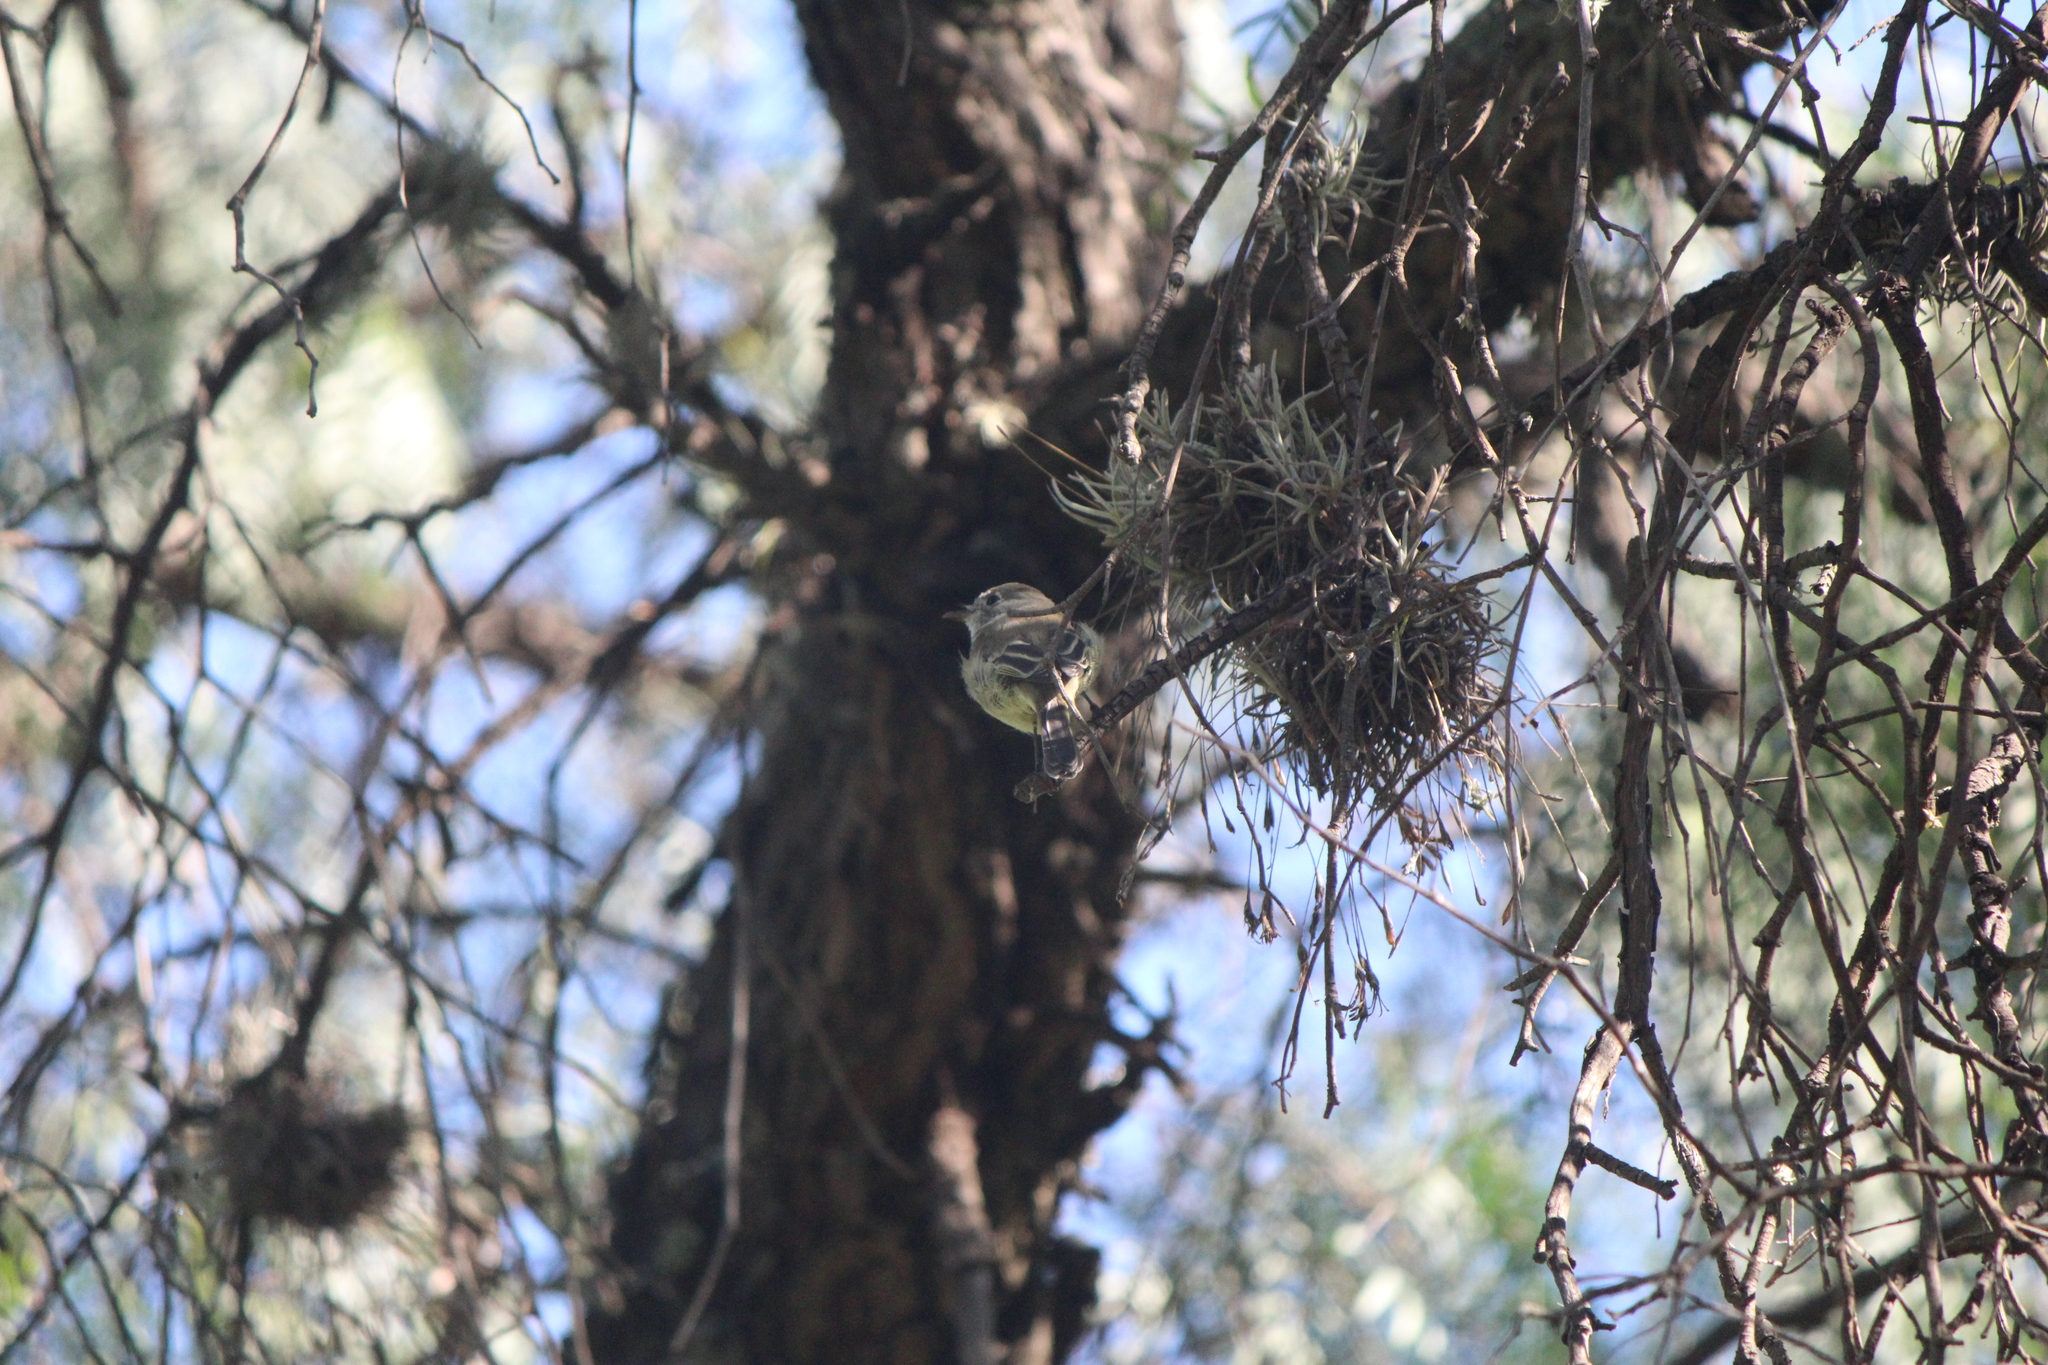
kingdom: Animalia
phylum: Chordata
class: Aves
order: Passeriformes
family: Tyrannidae
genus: Empidonax
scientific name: Empidonax hammondii
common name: Hammond's flycatcher
